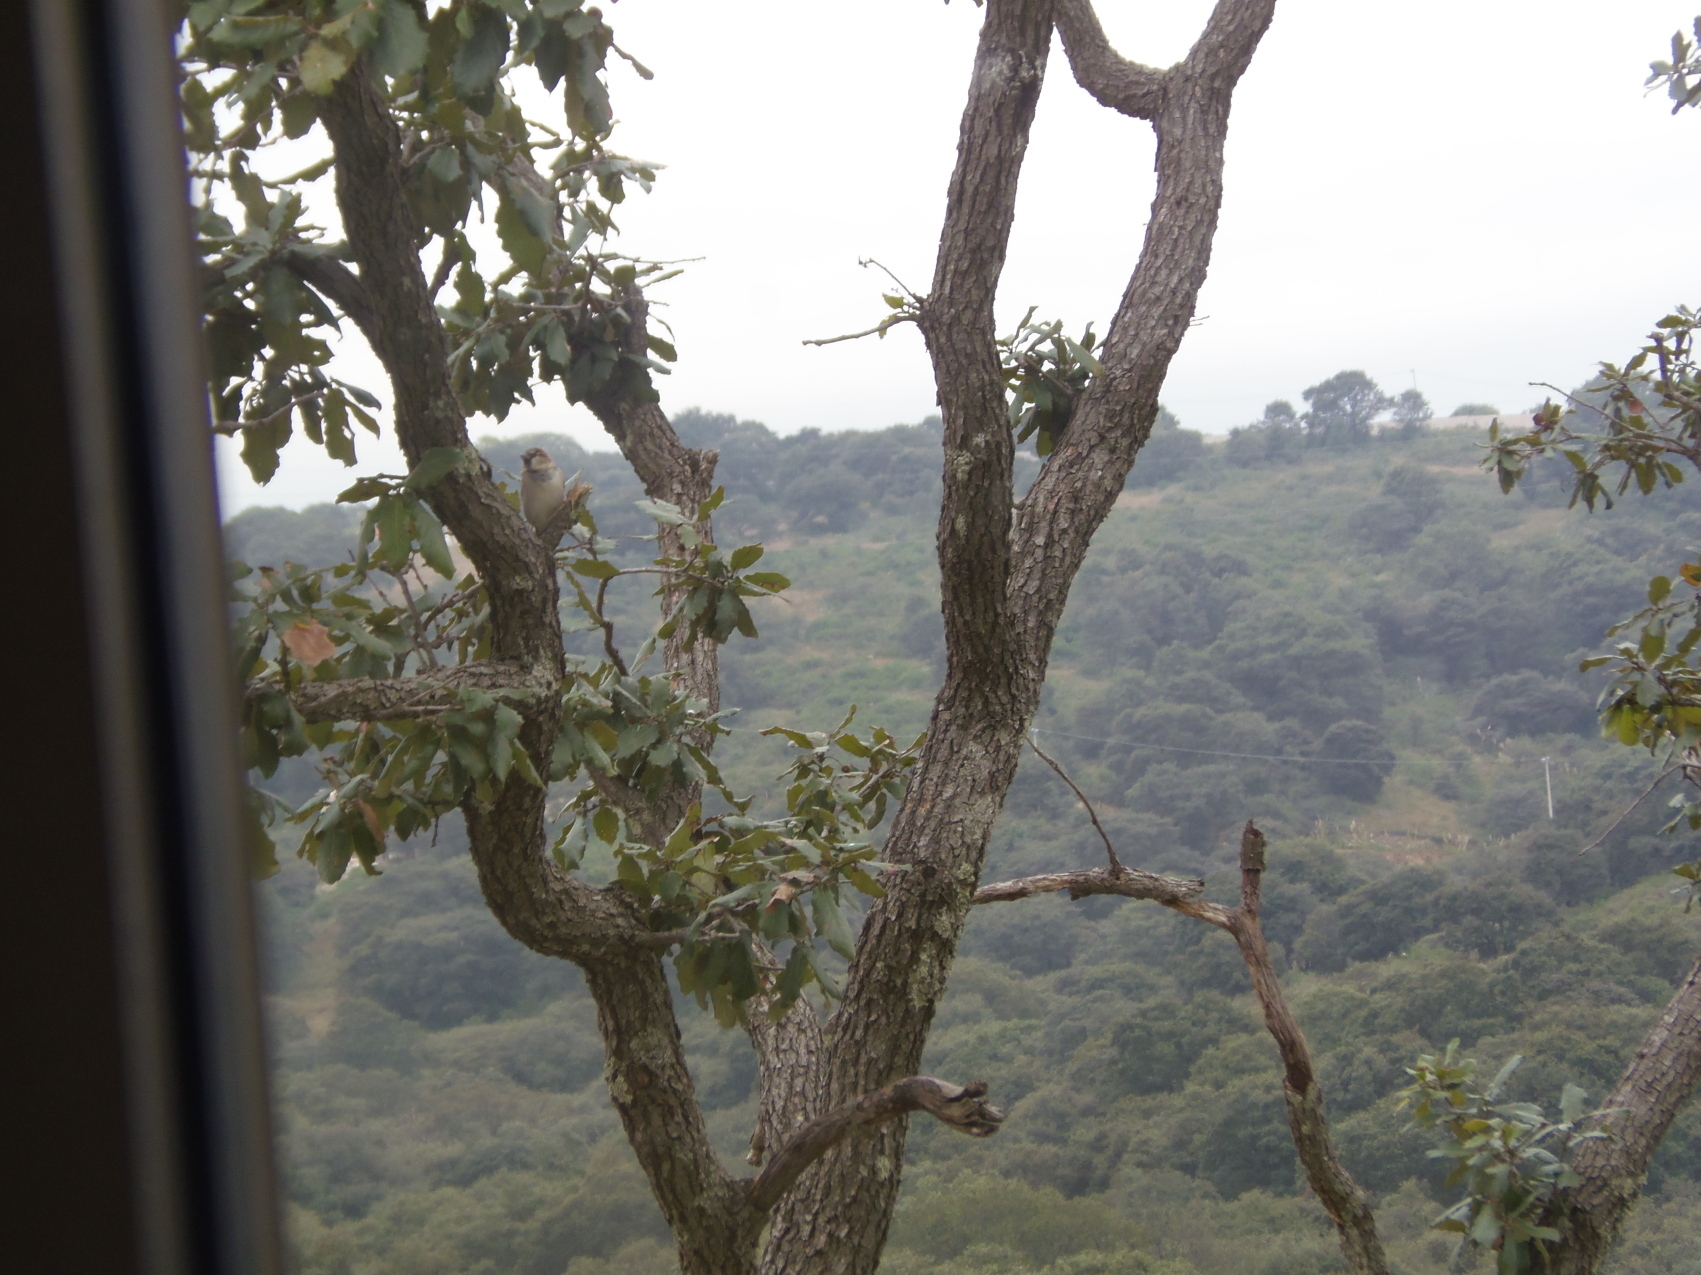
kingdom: Animalia
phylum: Chordata
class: Aves
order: Passeriformes
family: Passeridae
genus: Passer
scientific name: Passer domesticus
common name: House sparrow
